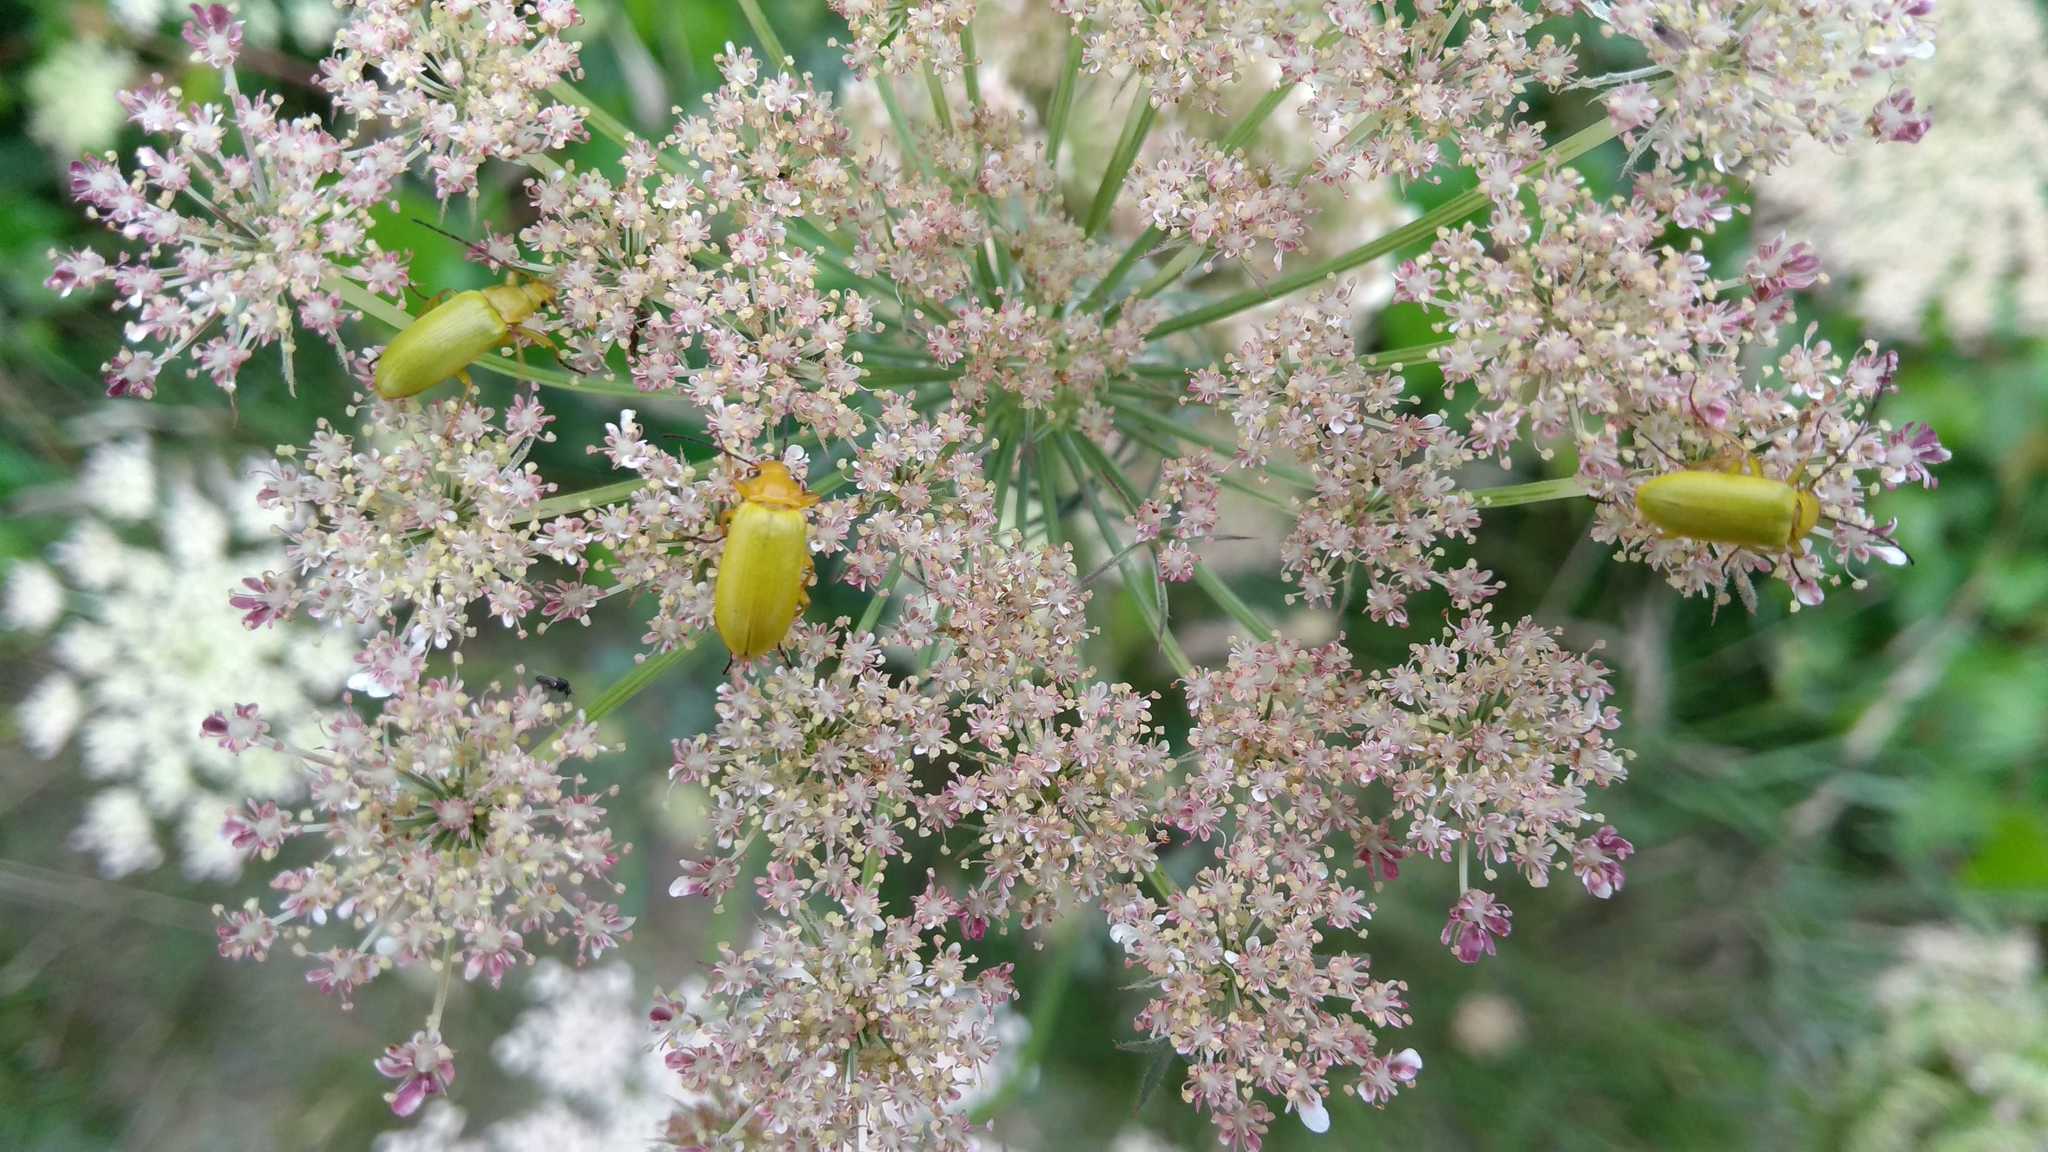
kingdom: Animalia
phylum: Arthropoda
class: Insecta
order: Coleoptera
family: Tenebrionidae
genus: Cteniopus
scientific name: Cteniopus sulphureus
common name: Sulphur beetle
